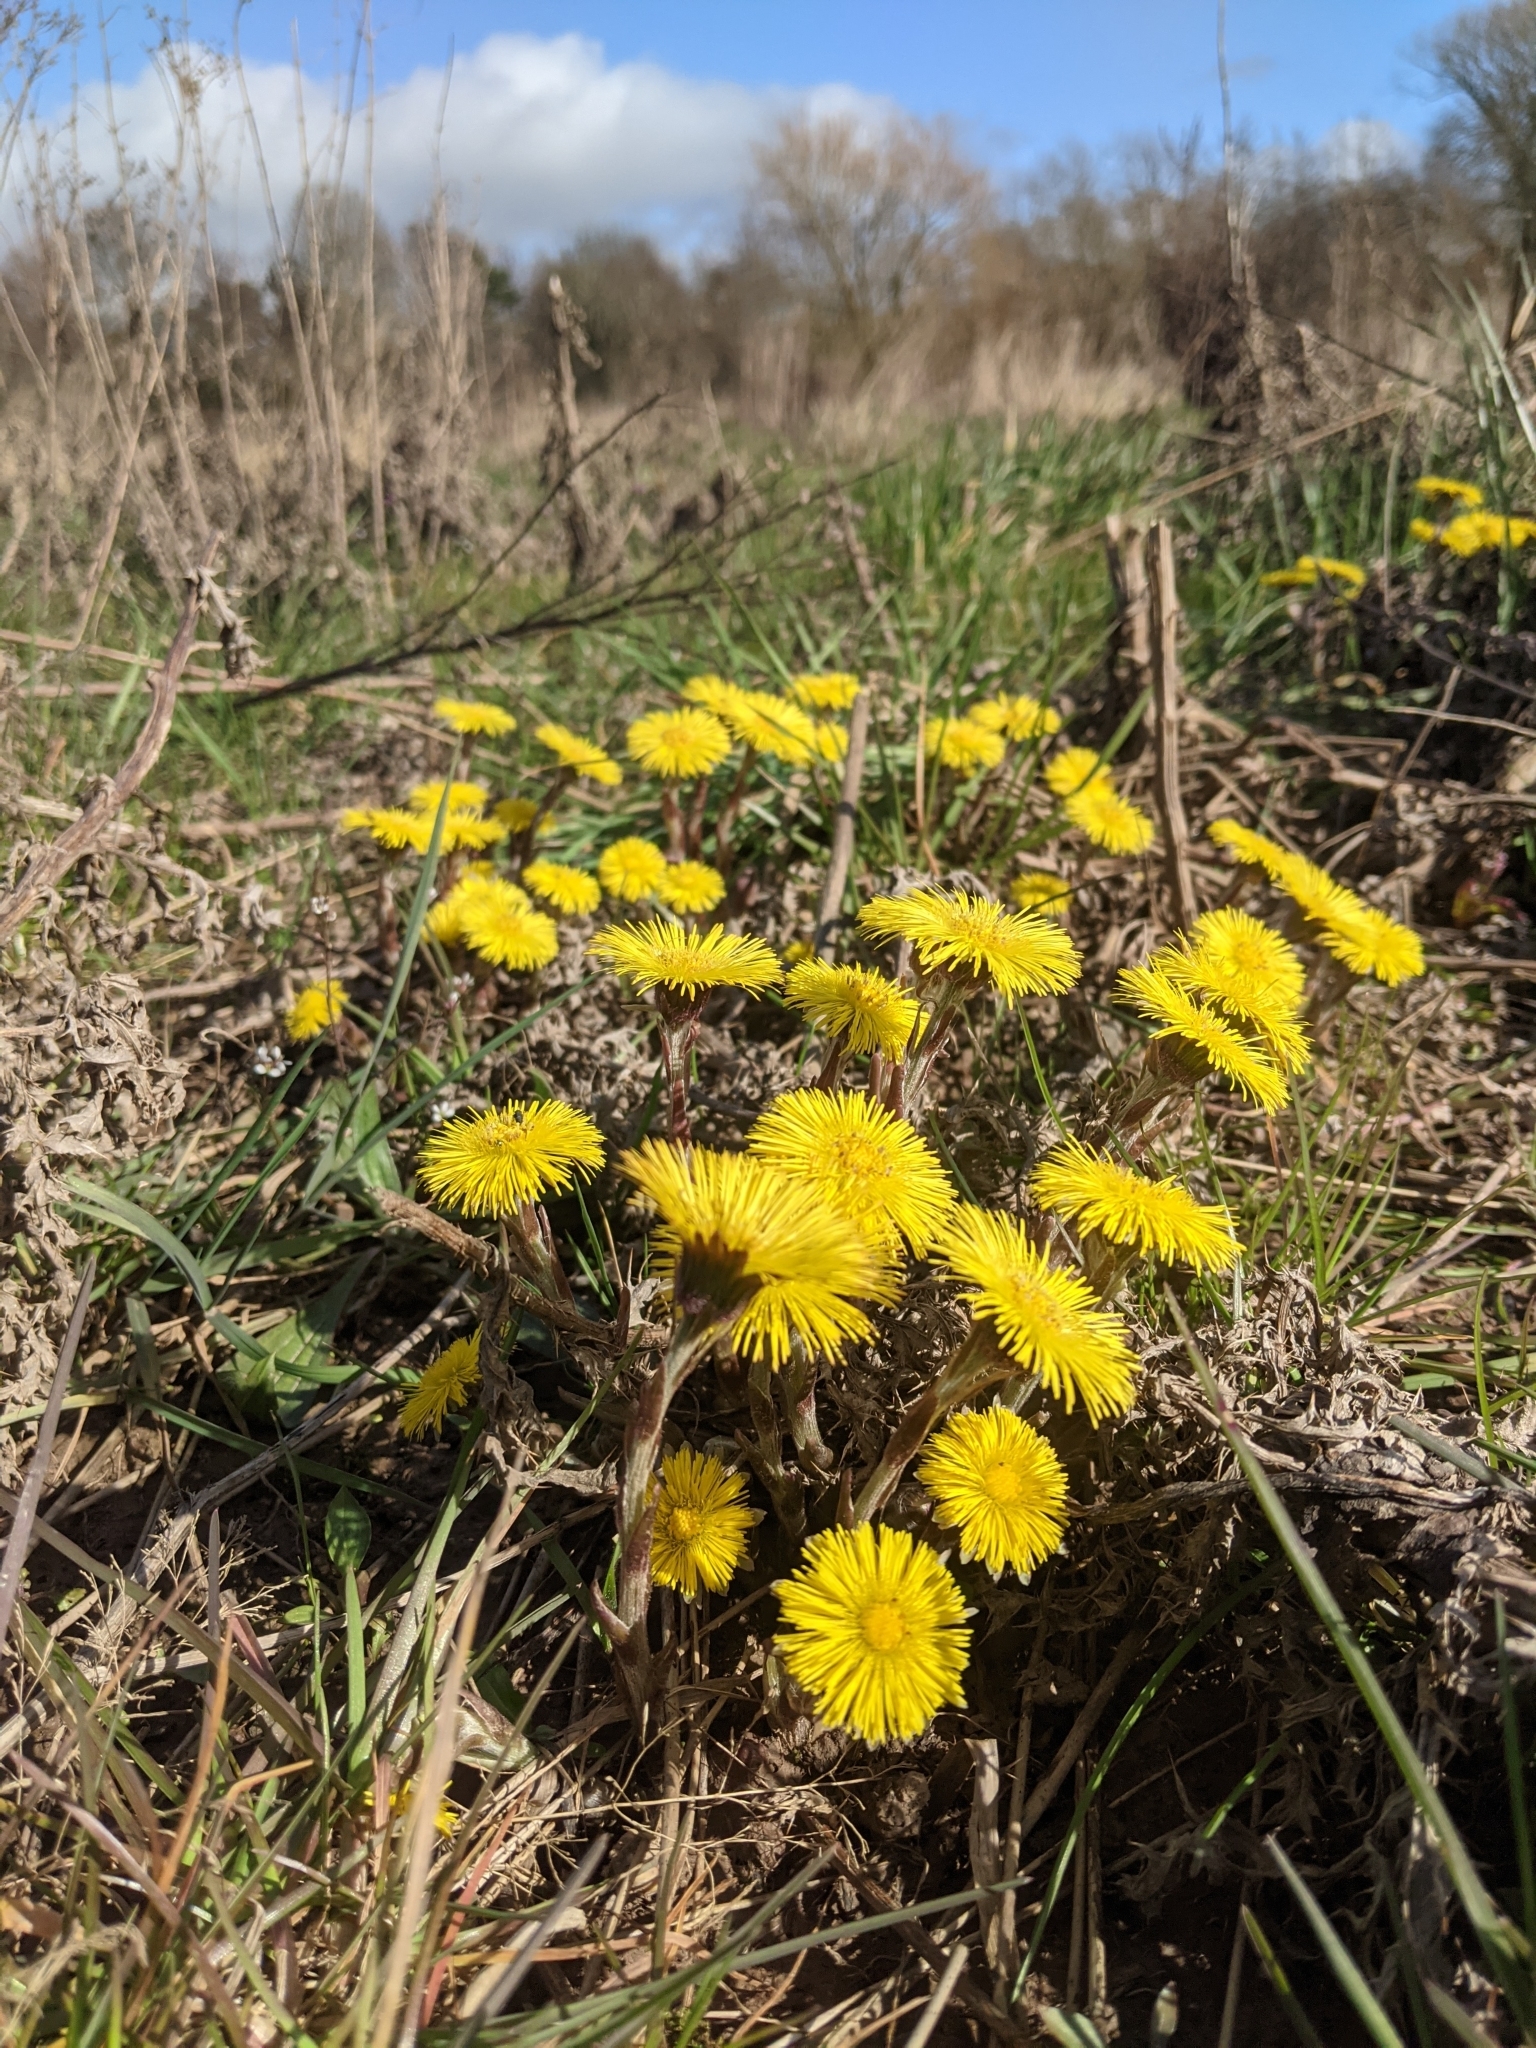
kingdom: Plantae
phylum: Tracheophyta
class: Magnoliopsida
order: Asterales
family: Asteraceae
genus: Tussilago
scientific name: Tussilago farfara
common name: Coltsfoot
